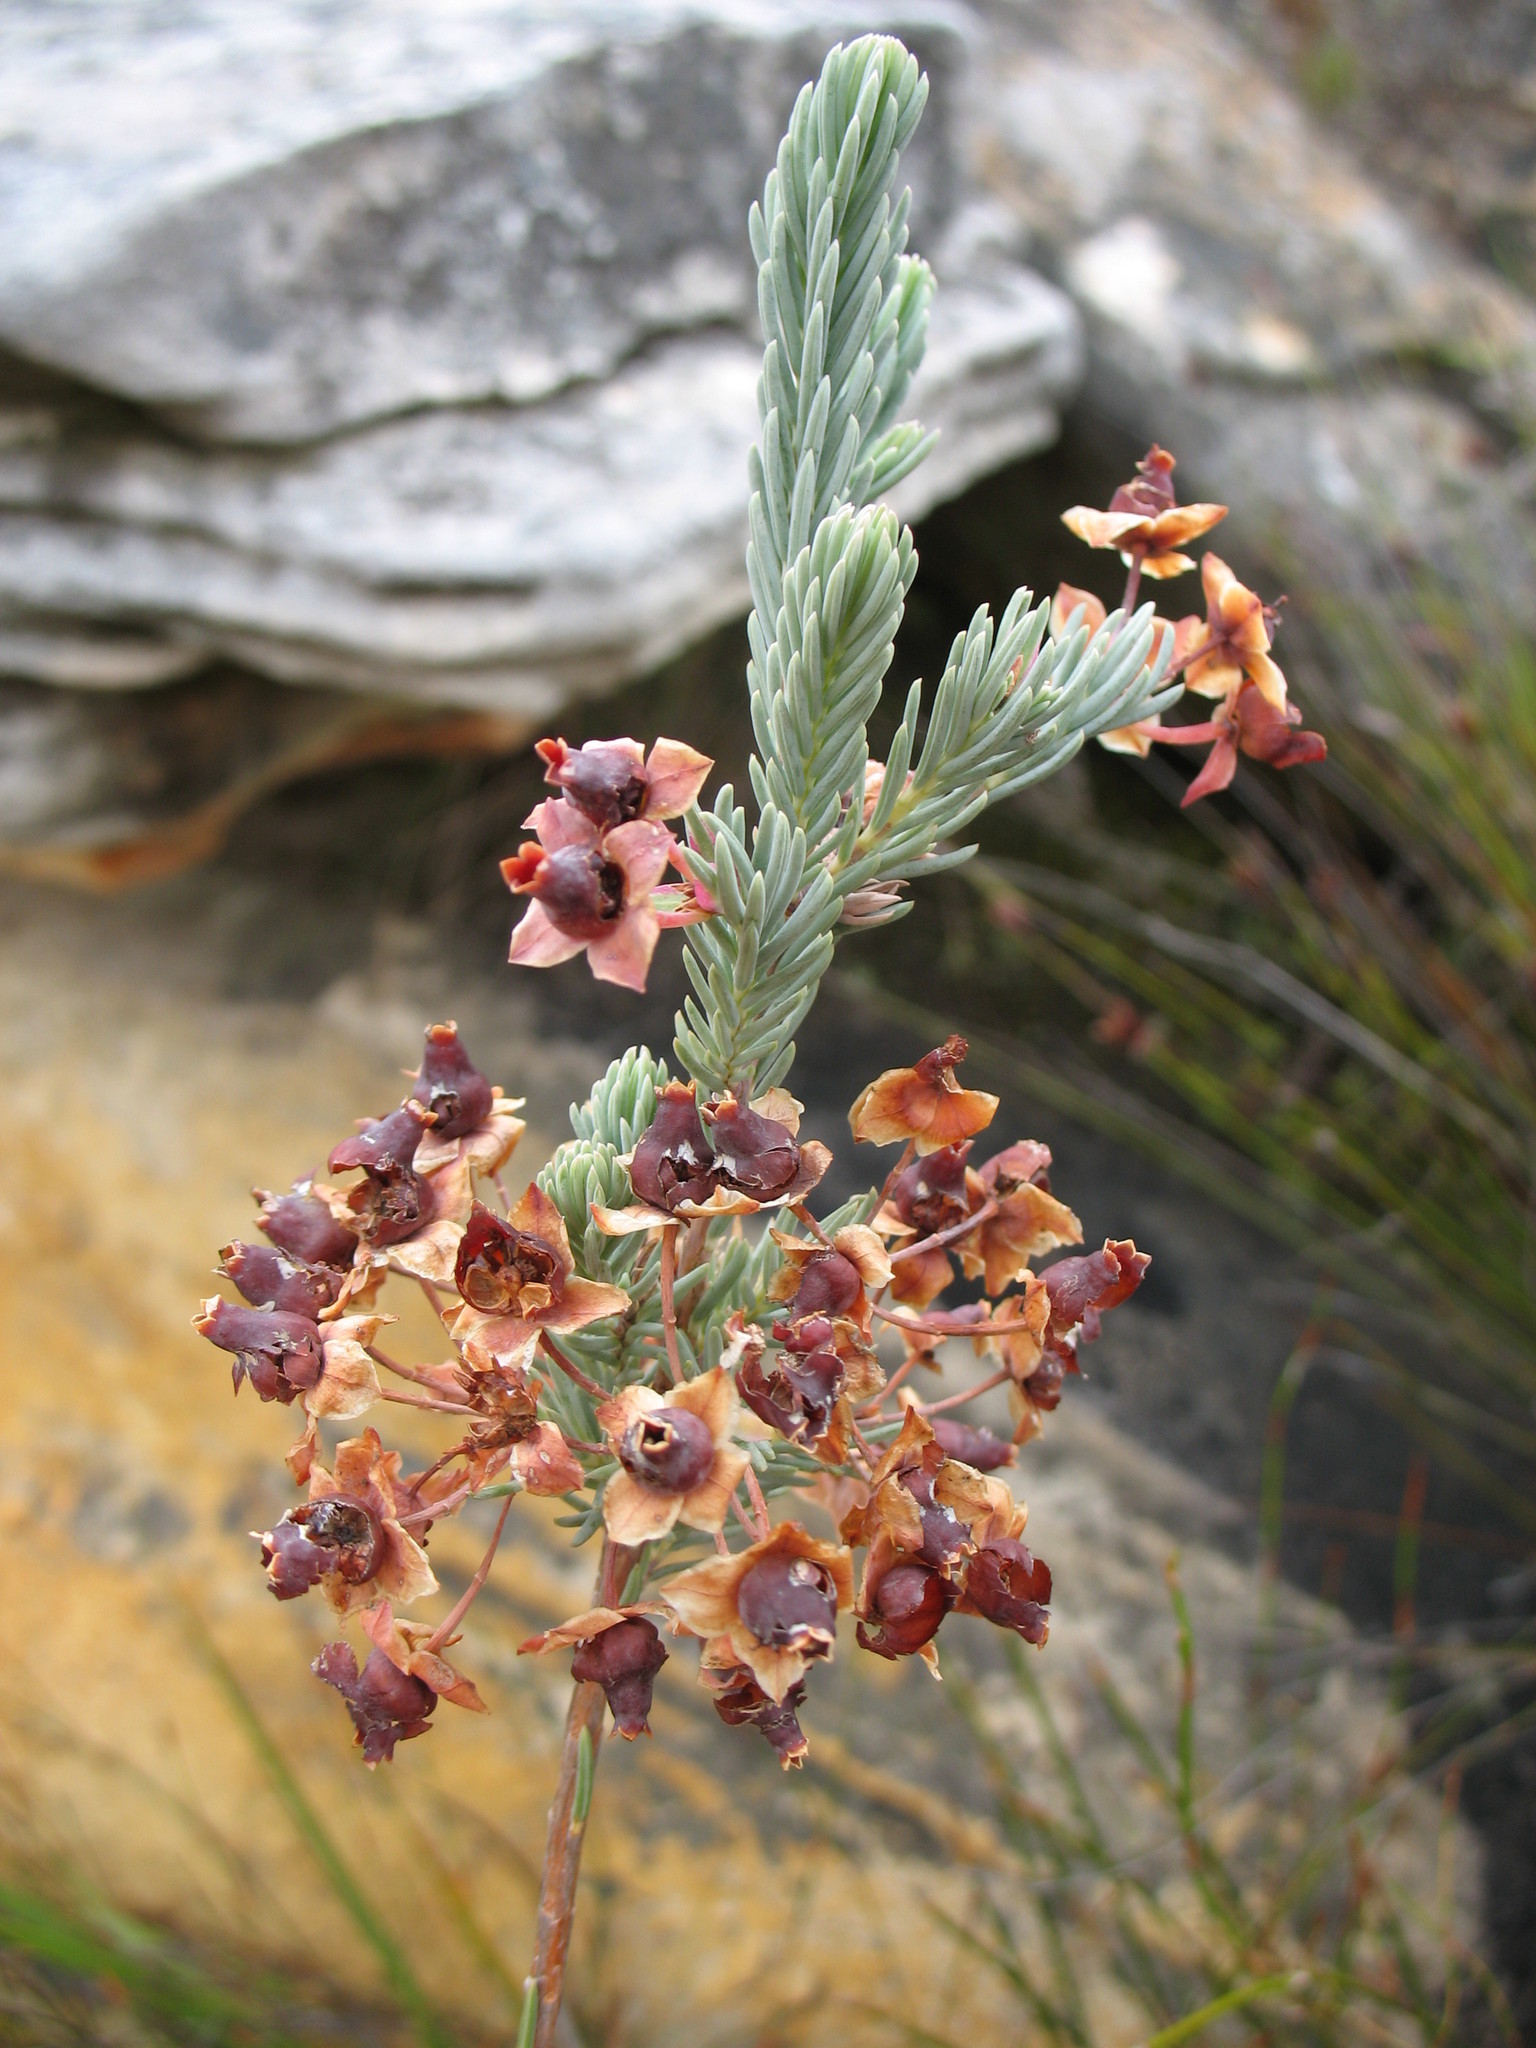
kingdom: Plantae
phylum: Tracheophyta
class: Magnoliopsida
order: Ericales
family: Ericaceae
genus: Erica
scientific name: Erica glauca
